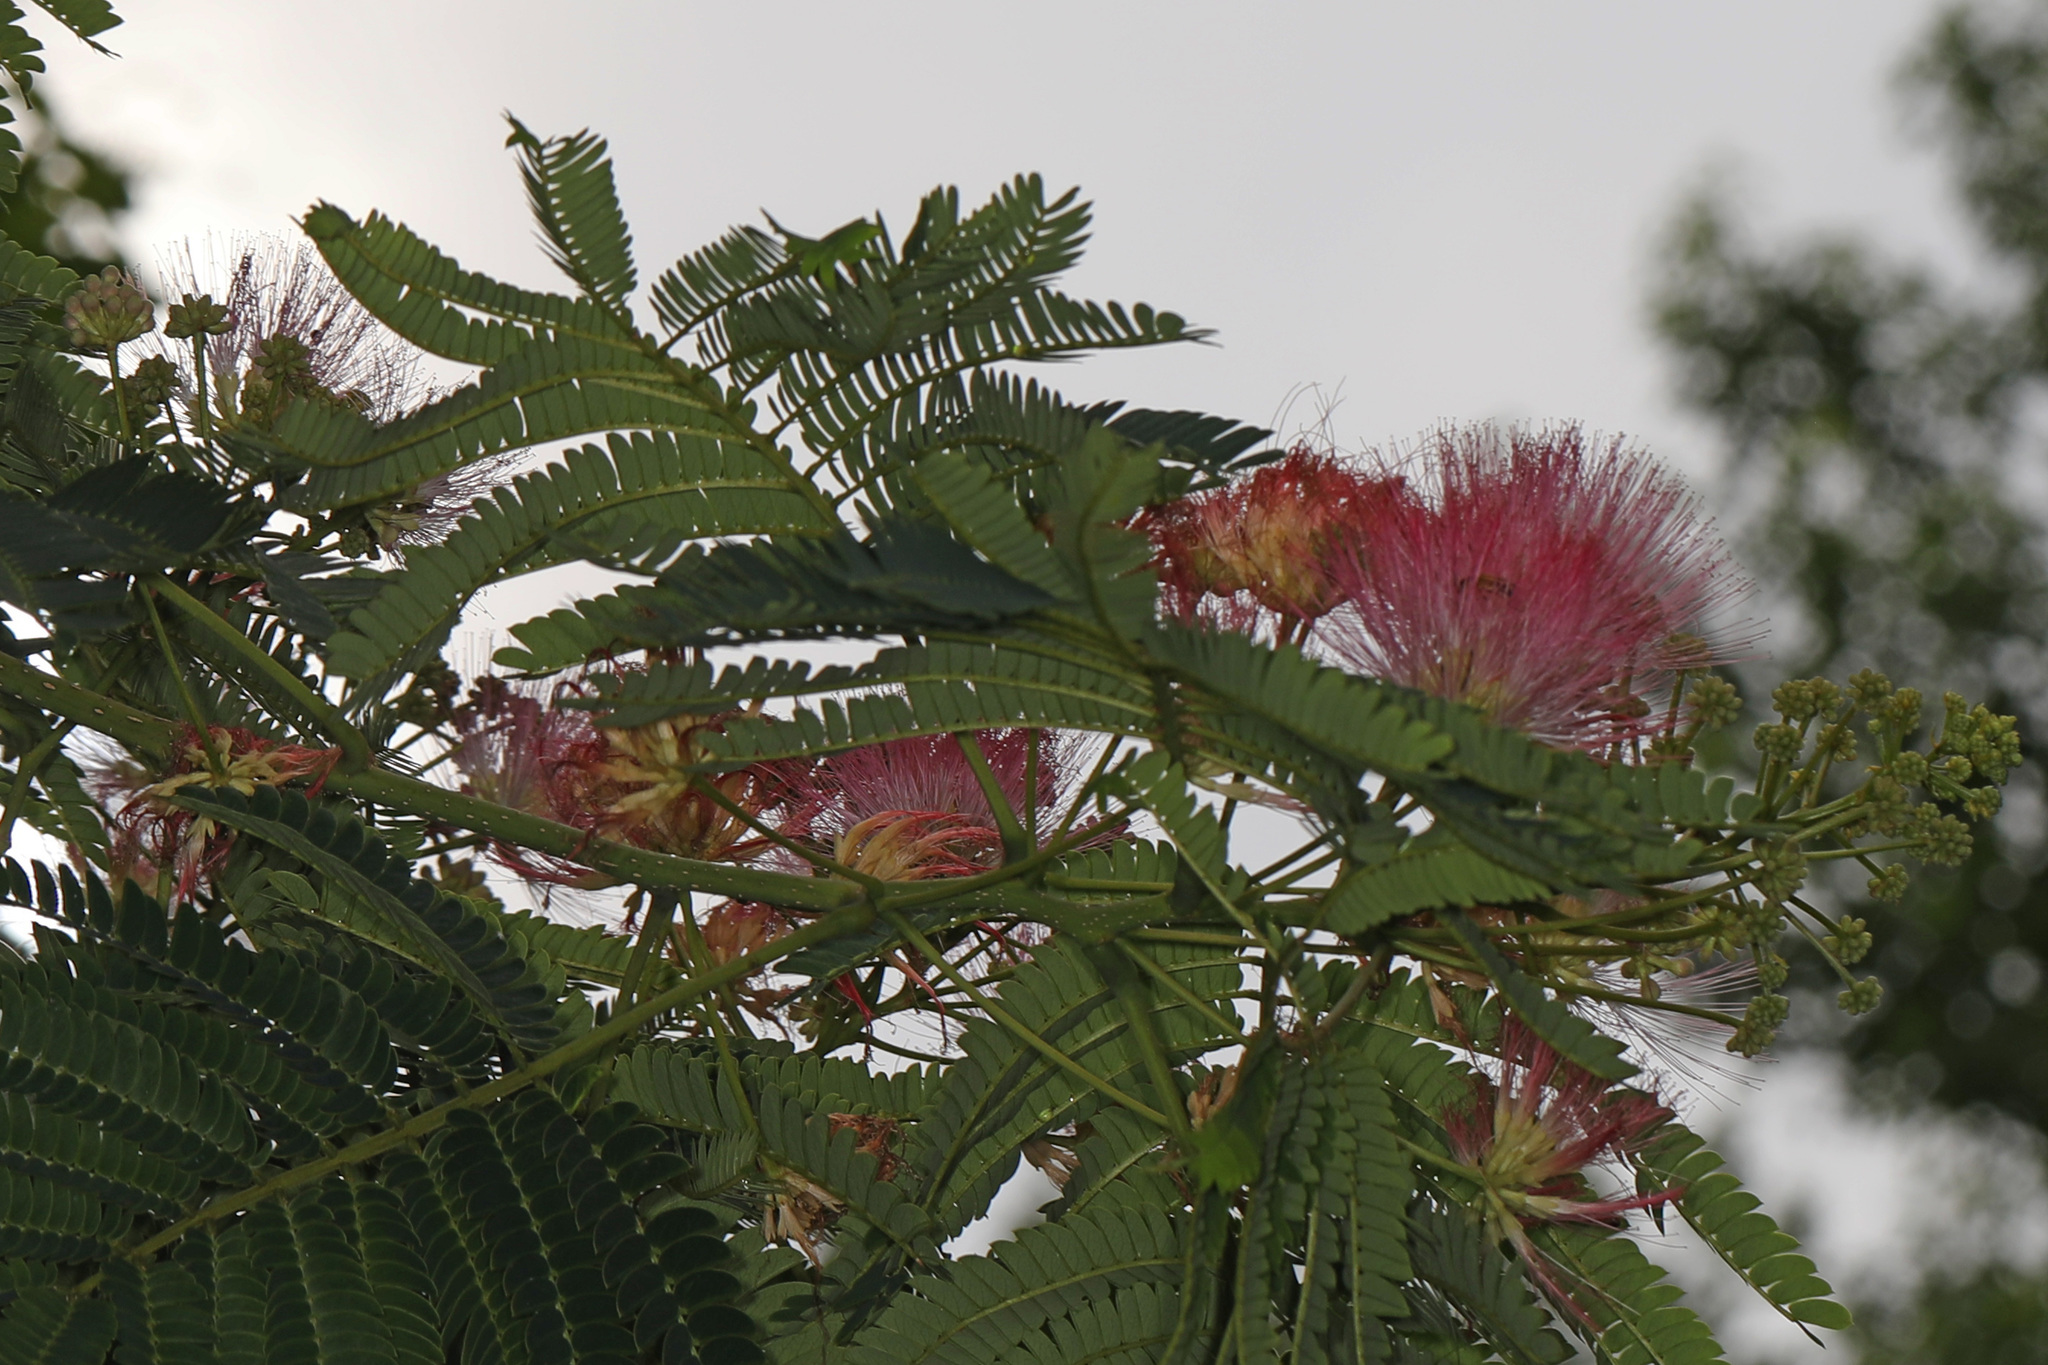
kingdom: Plantae
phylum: Tracheophyta
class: Magnoliopsida
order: Fabales
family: Fabaceae
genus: Albizia
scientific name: Albizia julibrissin
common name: Silktree
